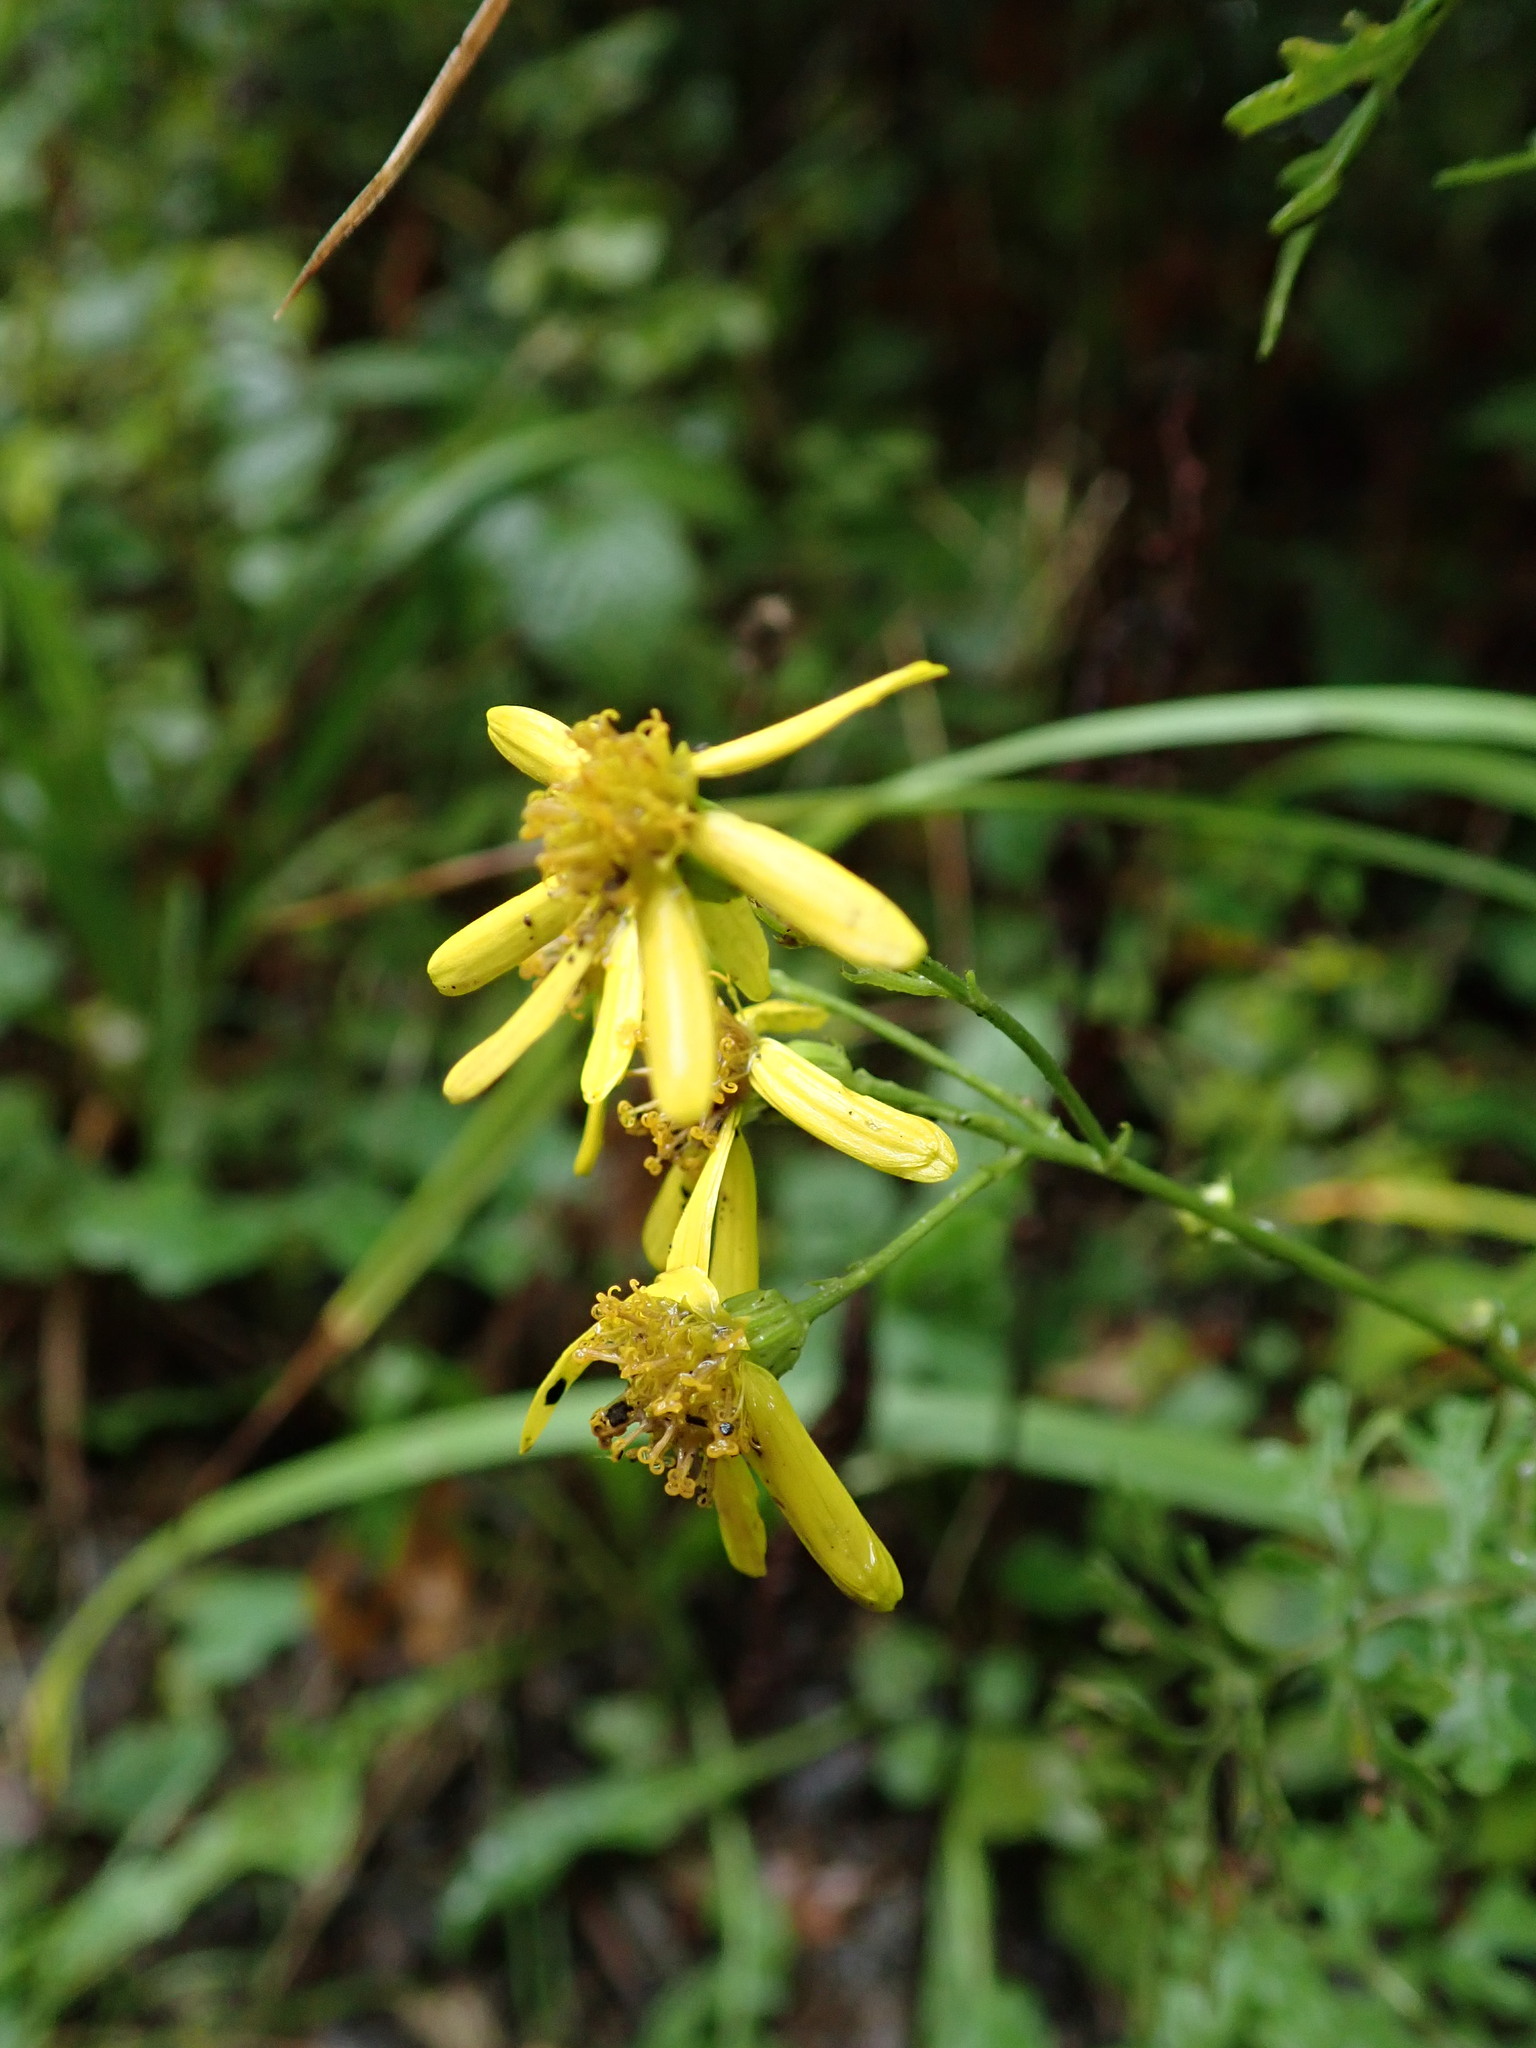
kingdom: Plantae
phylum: Tracheophyta
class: Magnoliopsida
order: Asterales
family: Asteraceae
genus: Jacobaea
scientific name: Jacobaea vulgaris
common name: Stinking willie
